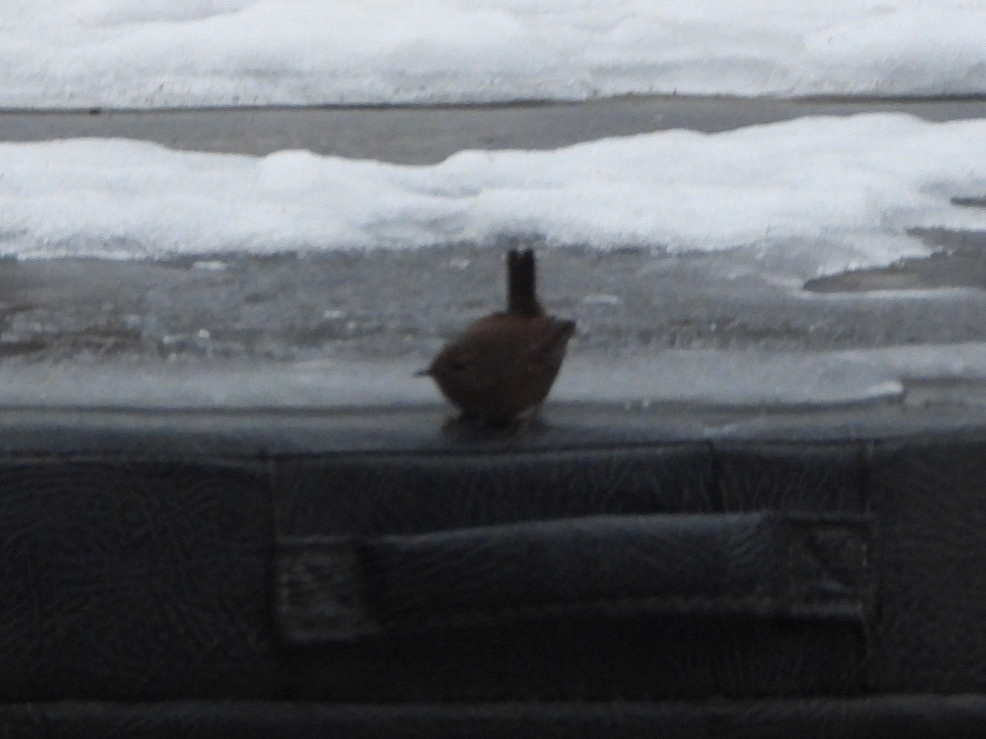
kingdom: Animalia
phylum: Chordata
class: Aves
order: Passeriformes
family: Troglodytidae
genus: Troglodytes
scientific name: Troglodytes pacificus
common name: Pacific wren
